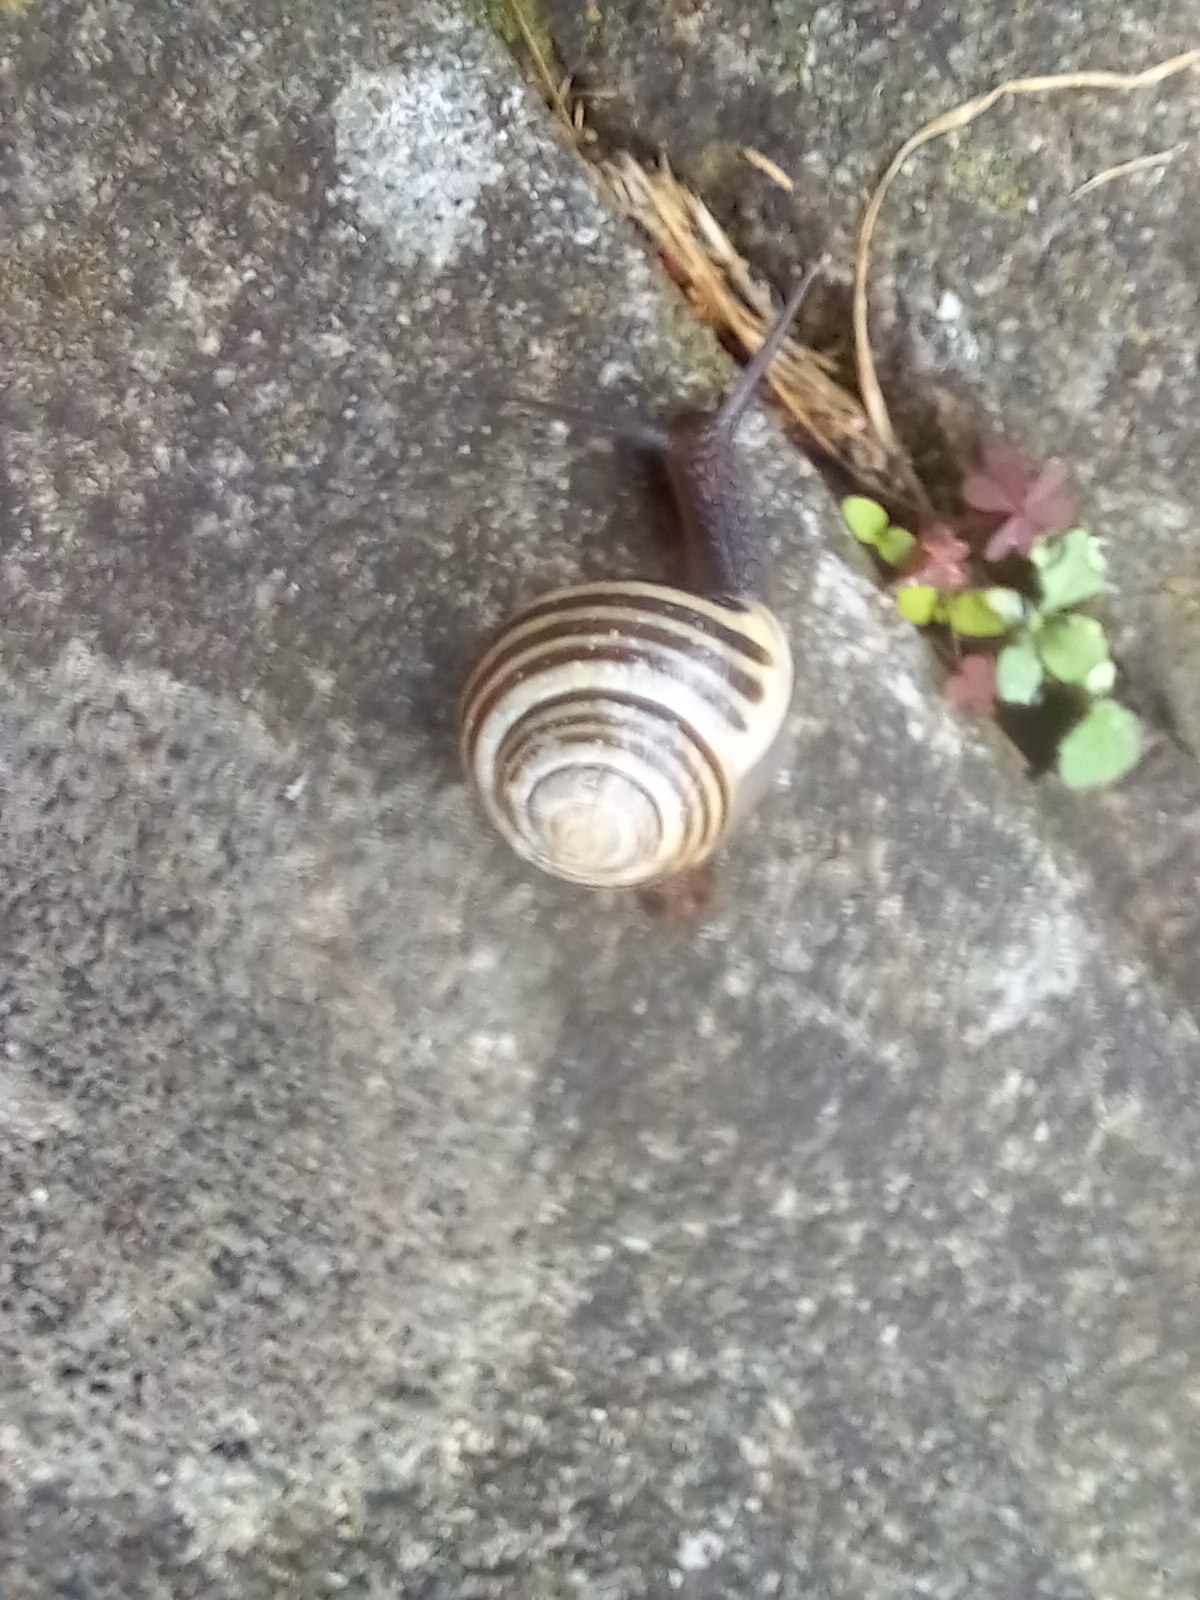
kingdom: Animalia
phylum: Mollusca
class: Gastropoda
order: Stylommatophora
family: Helicidae
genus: Cepaea
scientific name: Cepaea hortensis
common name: White-lip gardensnail
